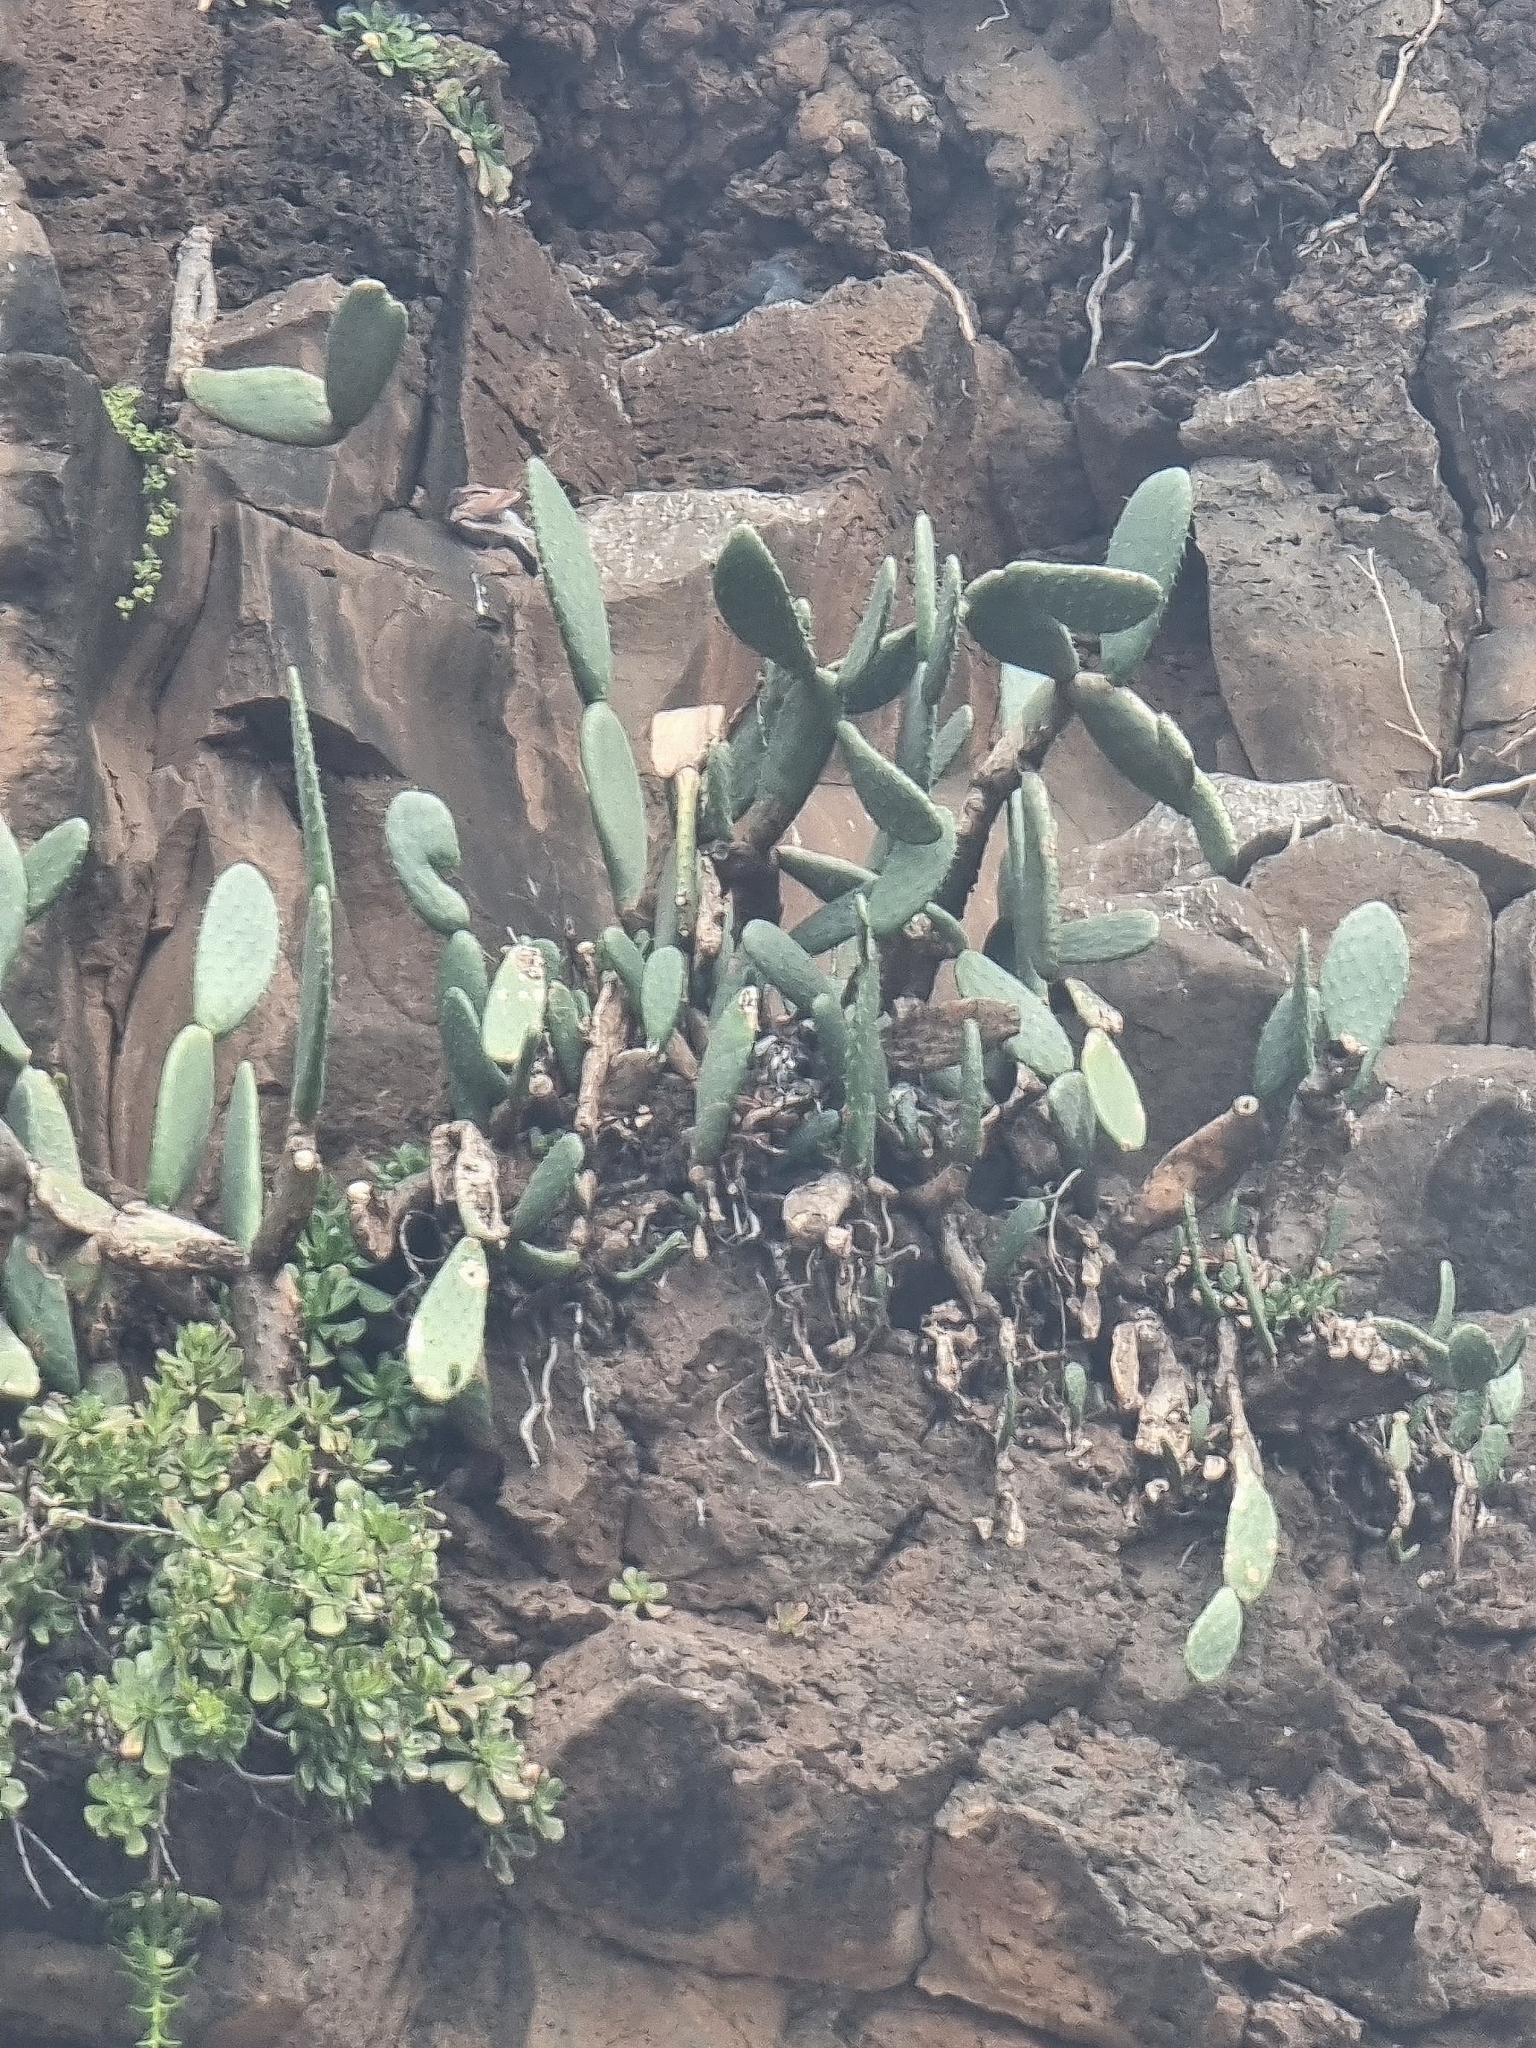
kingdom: Plantae
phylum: Tracheophyta
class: Magnoliopsida
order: Caryophyllales
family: Cactaceae
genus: Opuntia
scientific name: Opuntia ficus-indica
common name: Barbary fig
